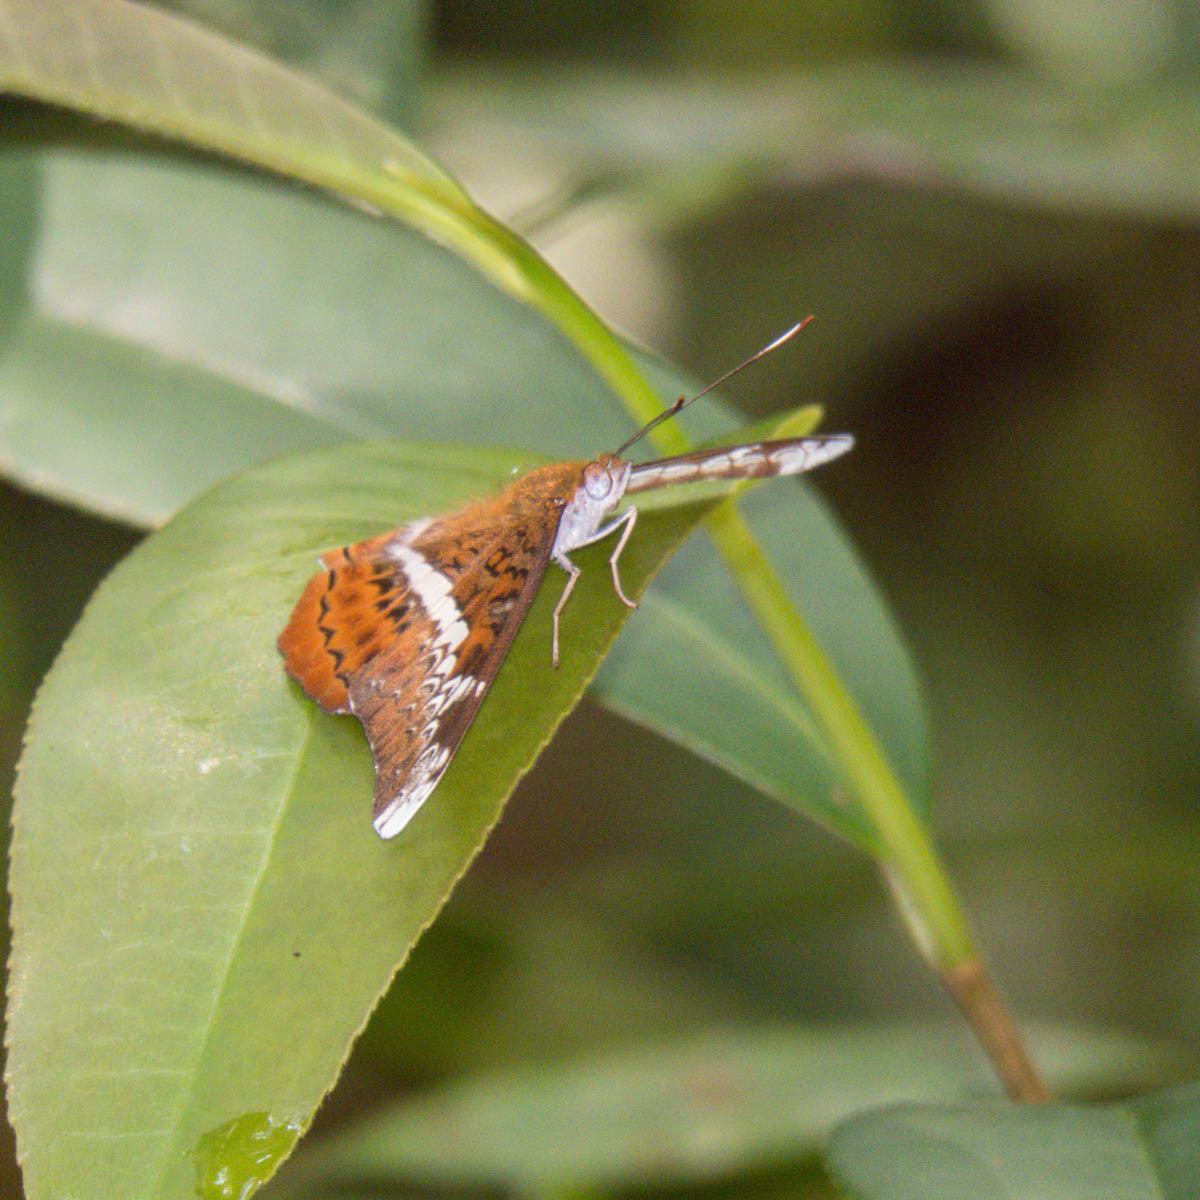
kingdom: Animalia
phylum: Arthropoda
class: Insecta
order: Lepidoptera
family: Nymphalidae
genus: Lebadea
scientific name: Lebadea martha
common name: Knight
